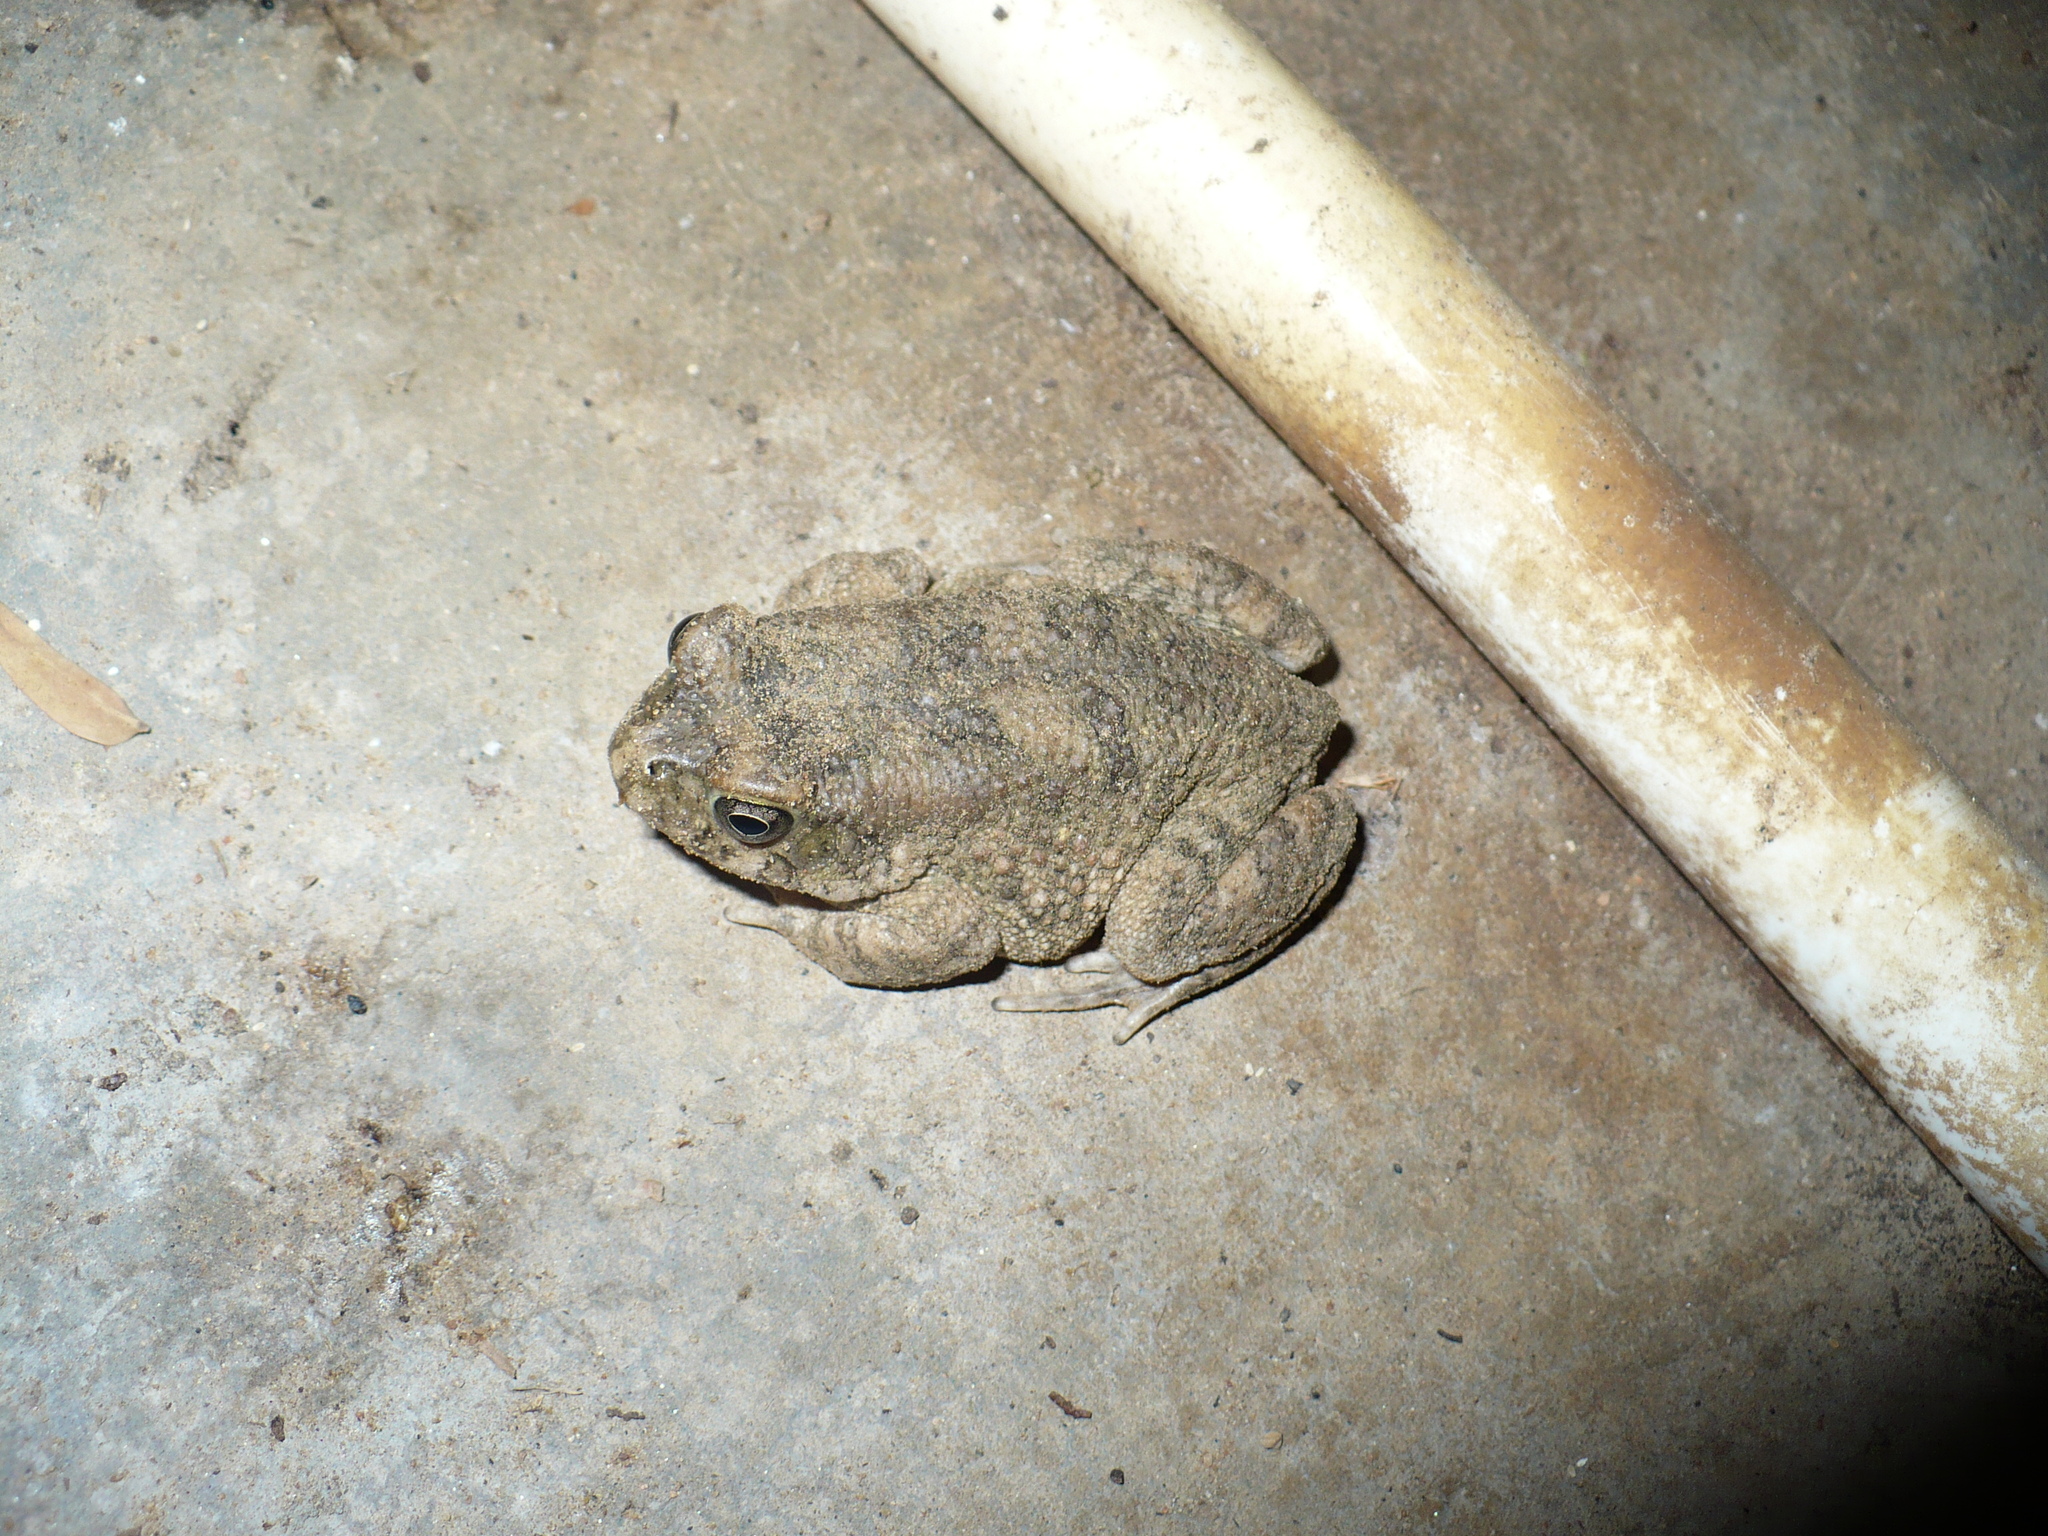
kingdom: Animalia
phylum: Chordata
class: Amphibia
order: Anura
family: Bufonidae
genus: Sclerophrys
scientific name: Sclerophrys pusilla
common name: Merten's striped toad
